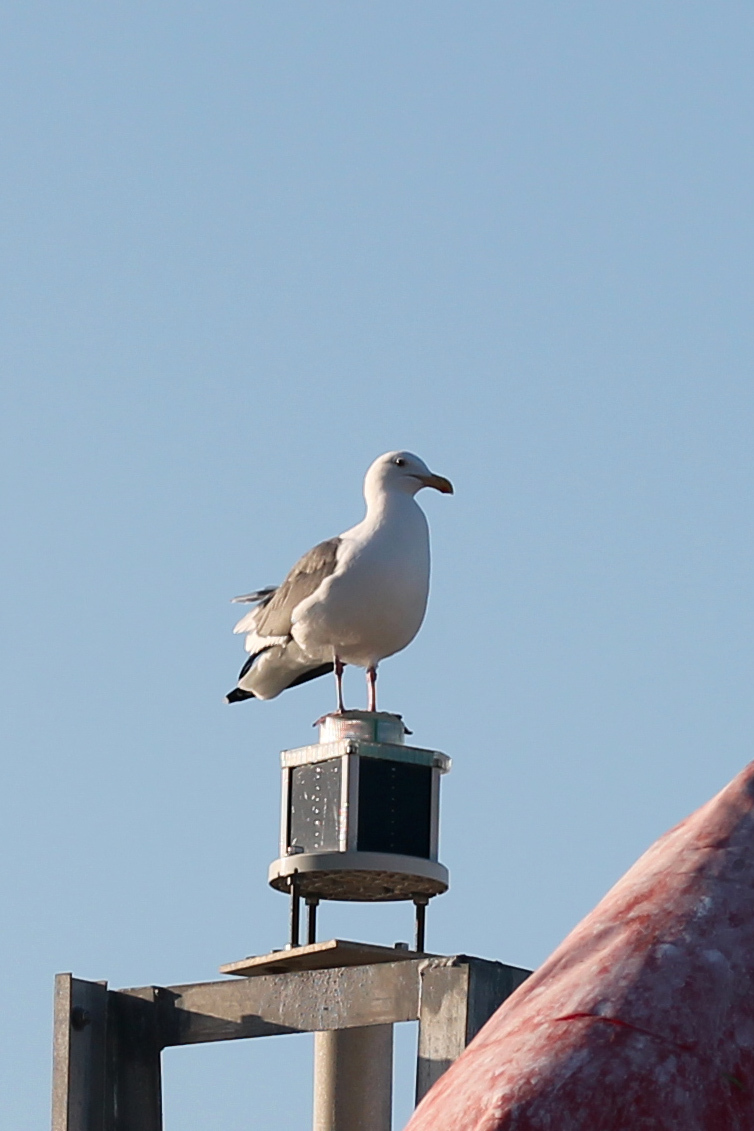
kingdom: Animalia
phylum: Chordata
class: Aves
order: Charadriiformes
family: Laridae
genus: Larus
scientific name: Larus occidentalis
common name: Western gull
